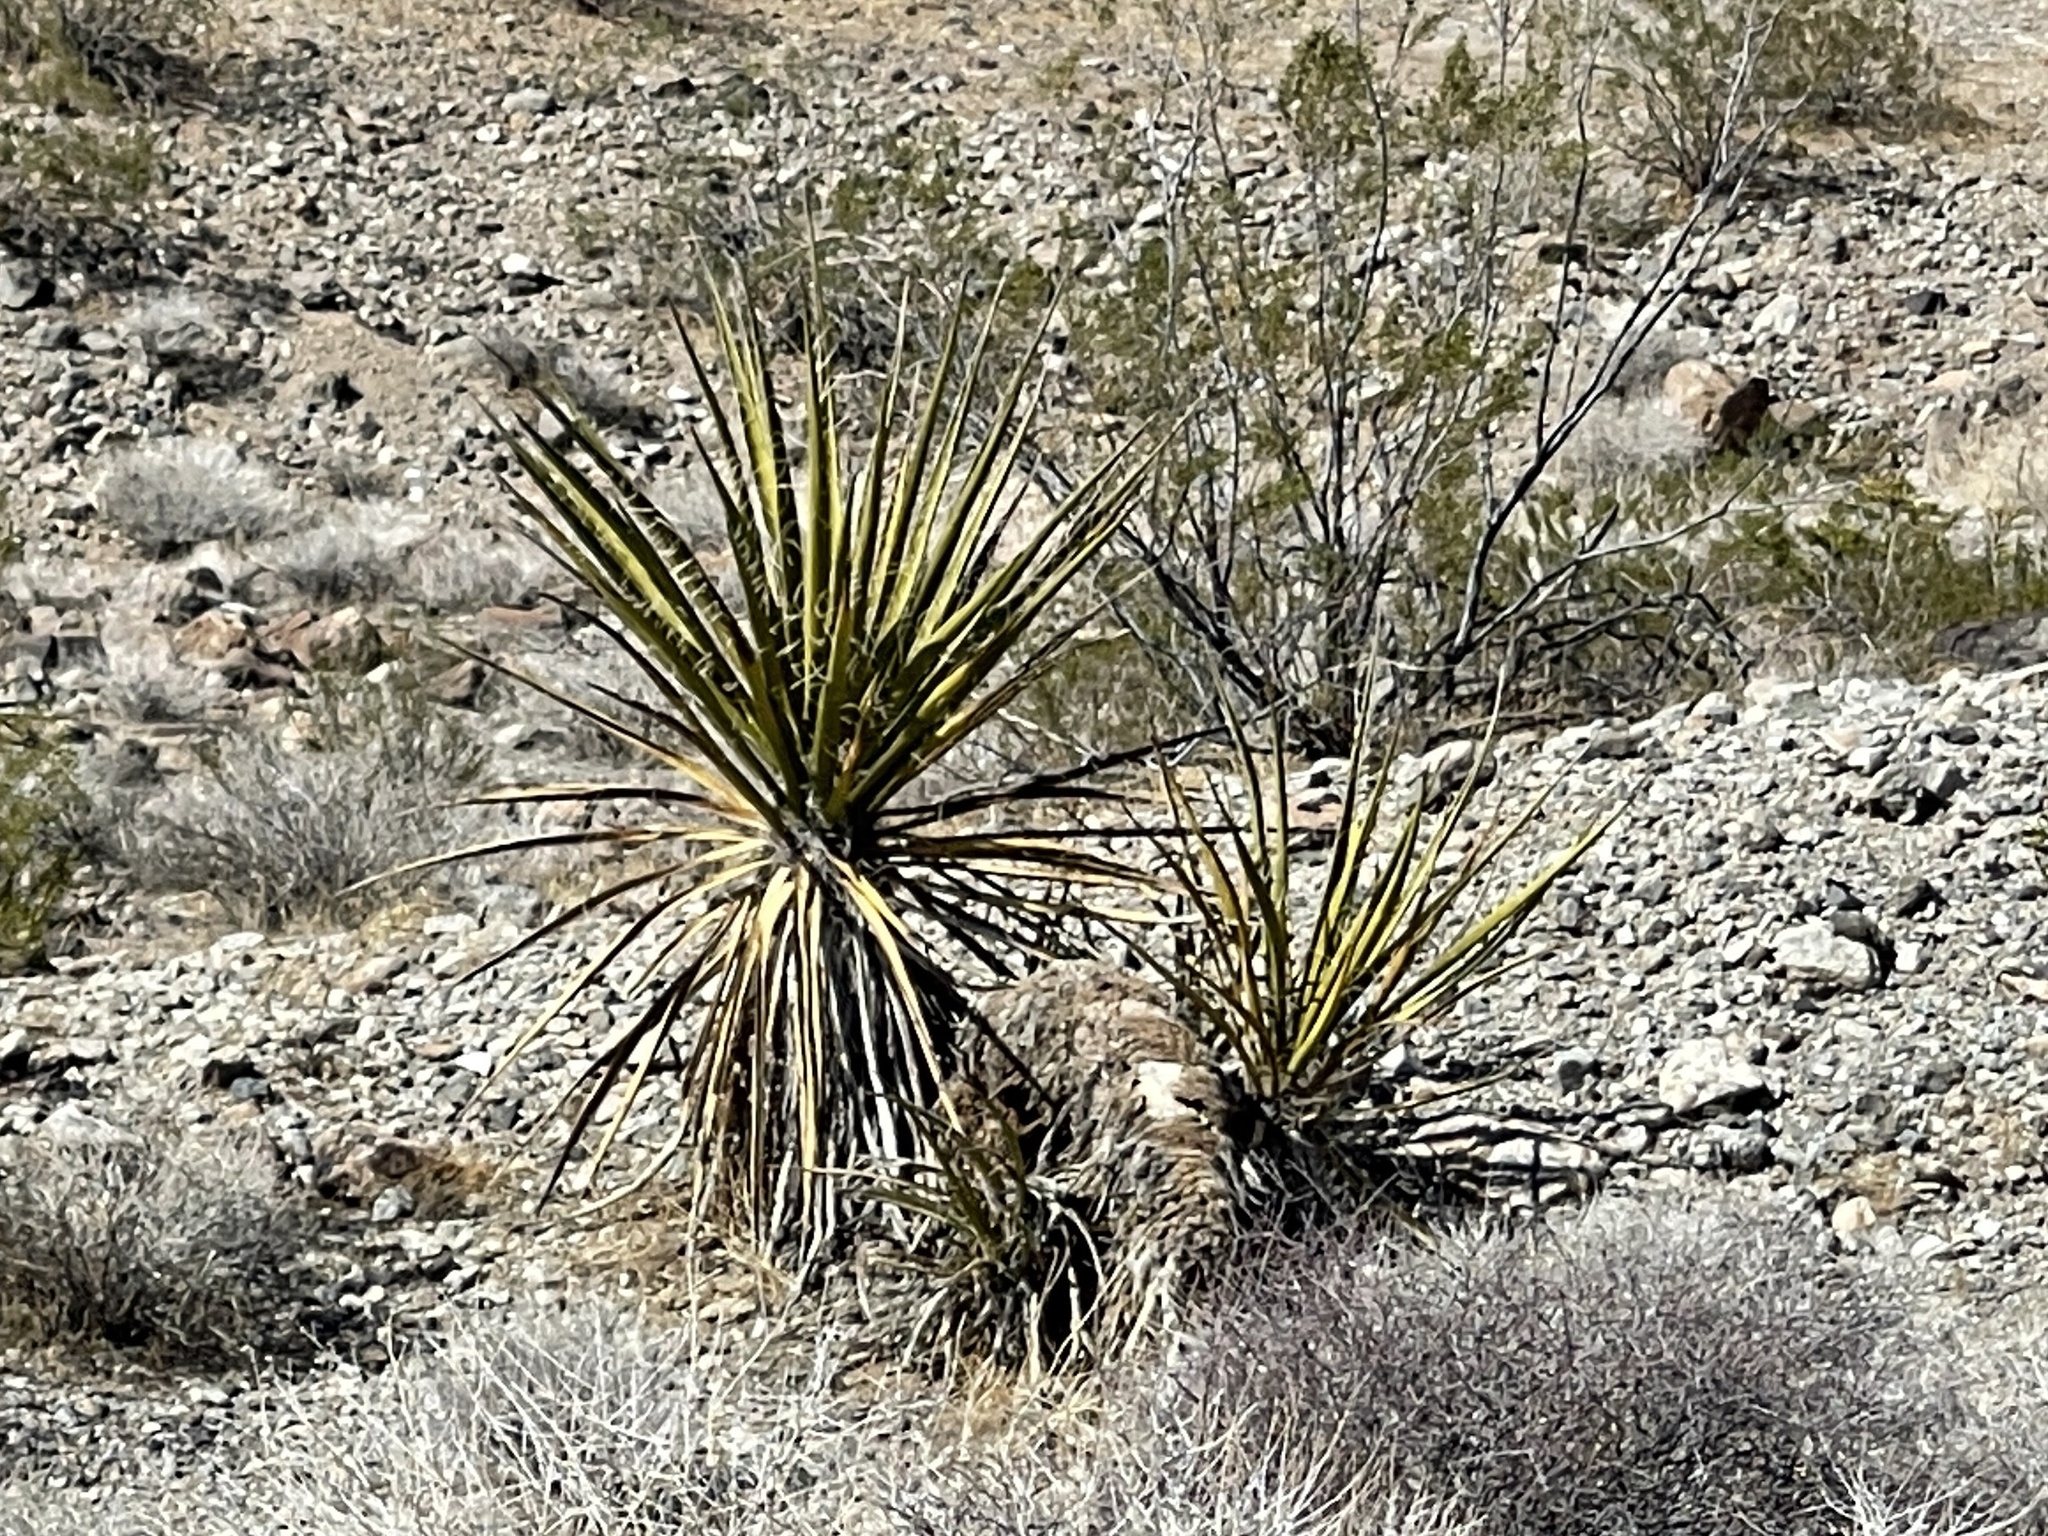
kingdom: Plantae
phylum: Tracheophyta
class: Liliopsida
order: Asparagales
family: Asparagaceae
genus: Yucca
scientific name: Yucca schidigera
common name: Mojave yucca
